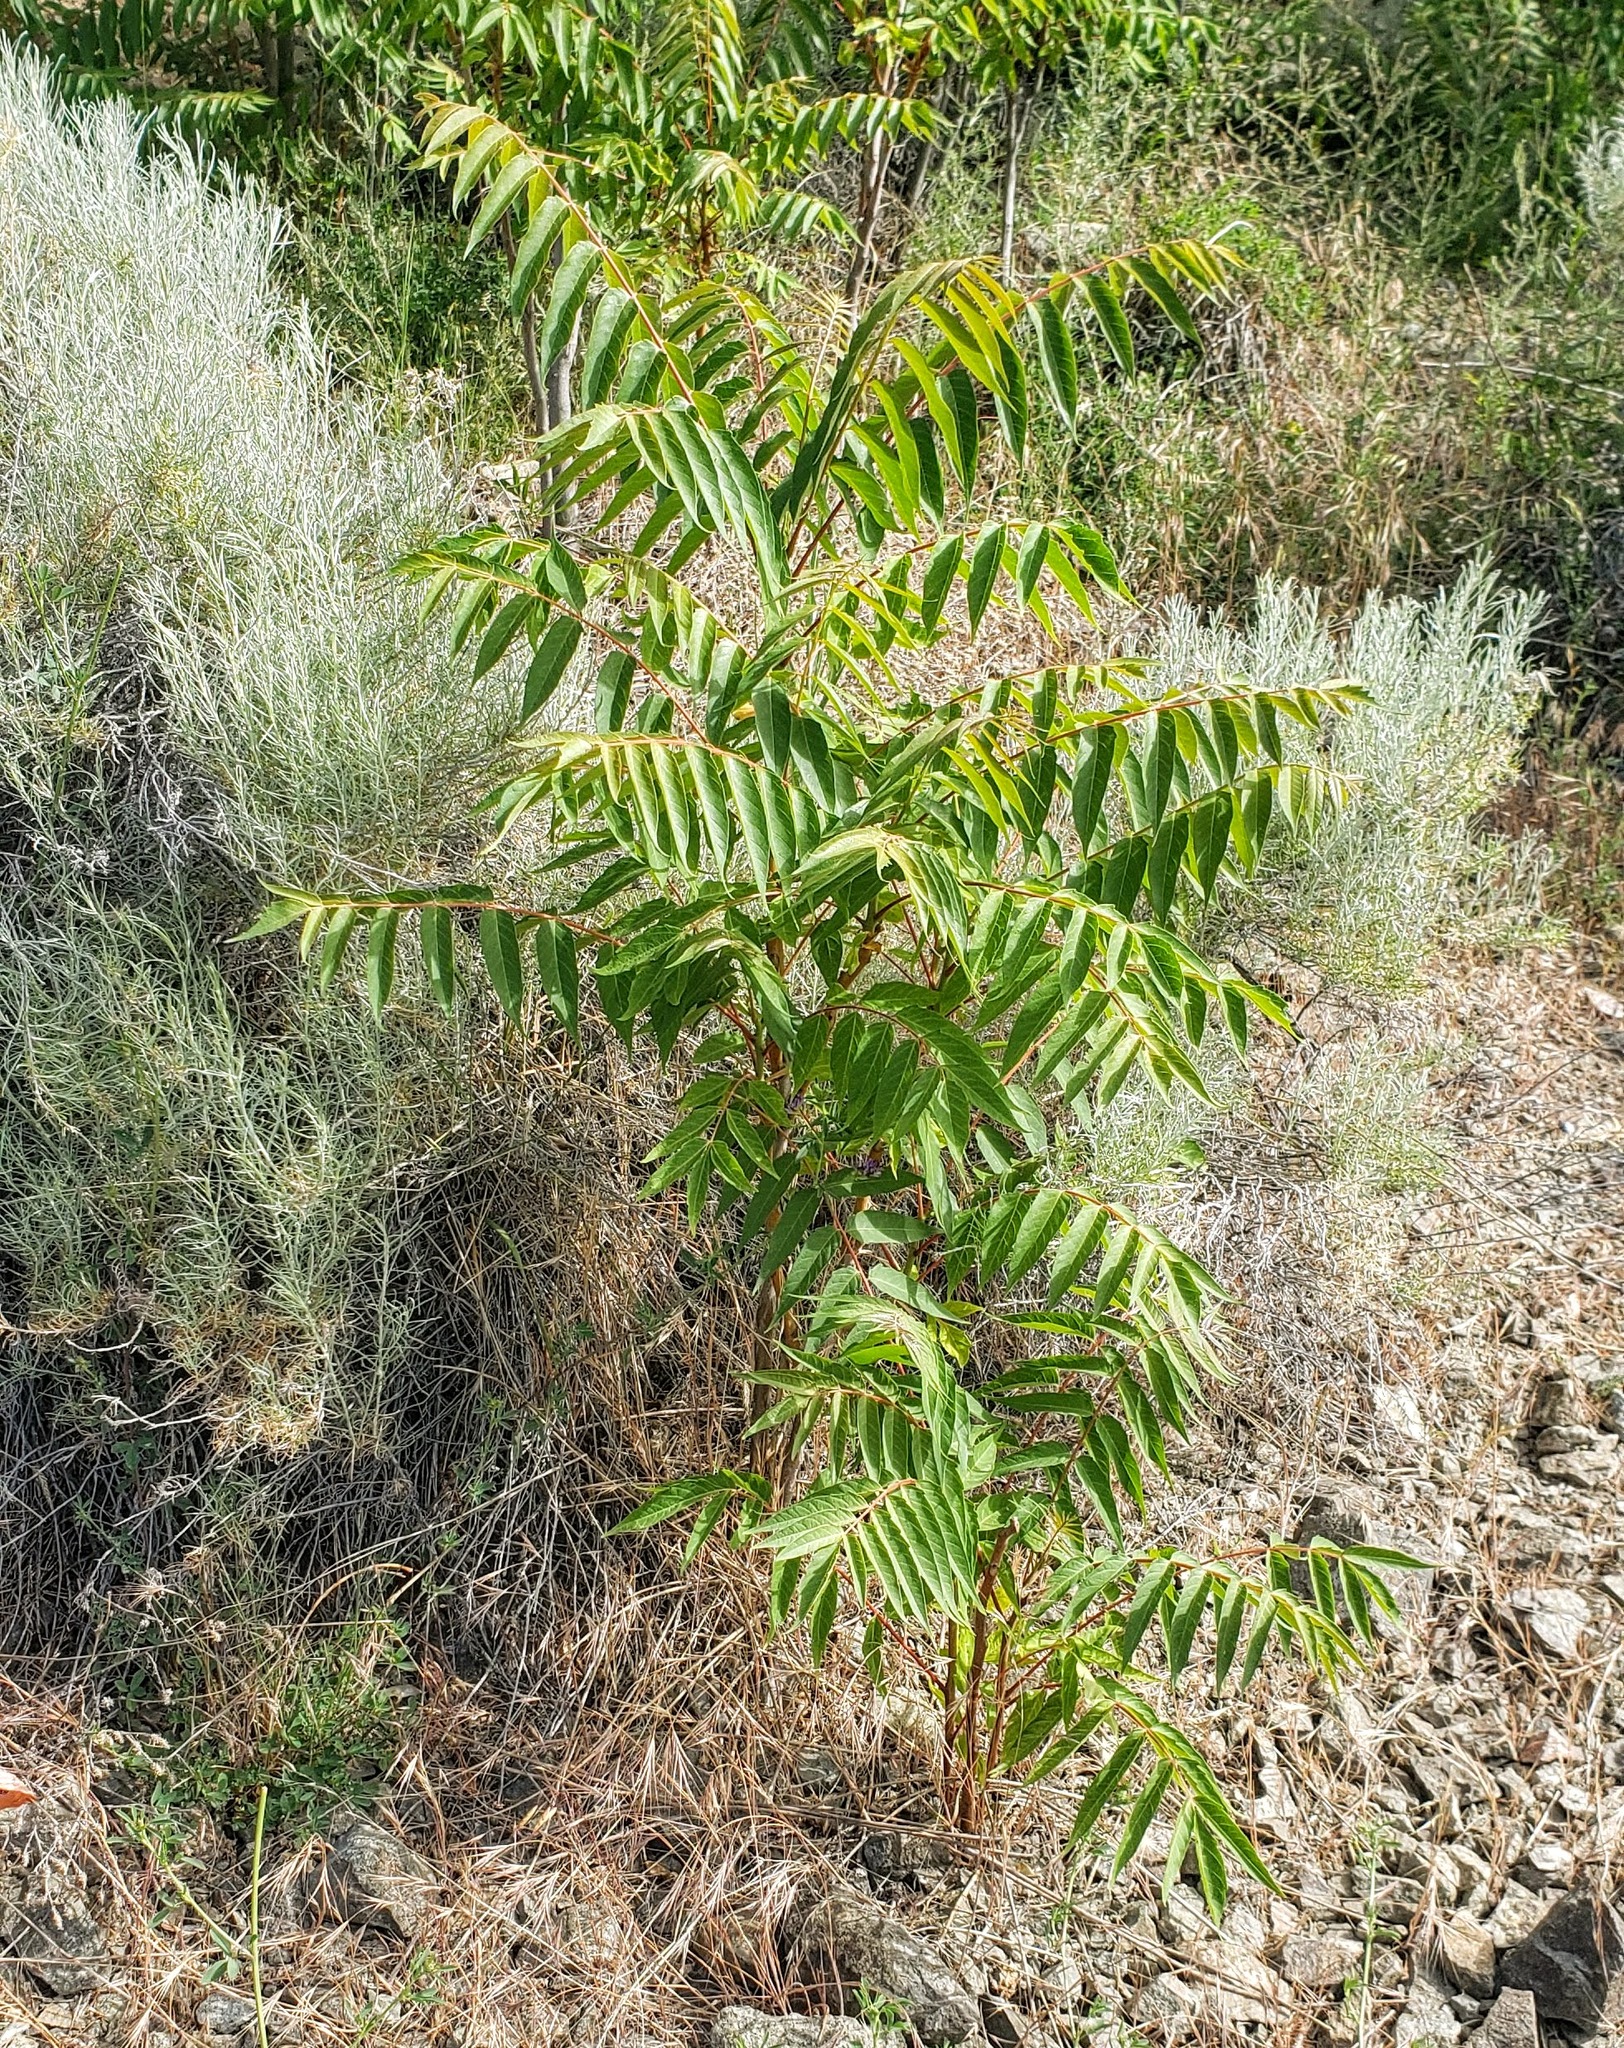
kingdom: Plantae
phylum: Tracheophyta
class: Magnoliopsida
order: Sapindales
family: Simaroubaceae
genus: Ailanthus
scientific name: Ailanthus altissima
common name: Tree-of-heaven
